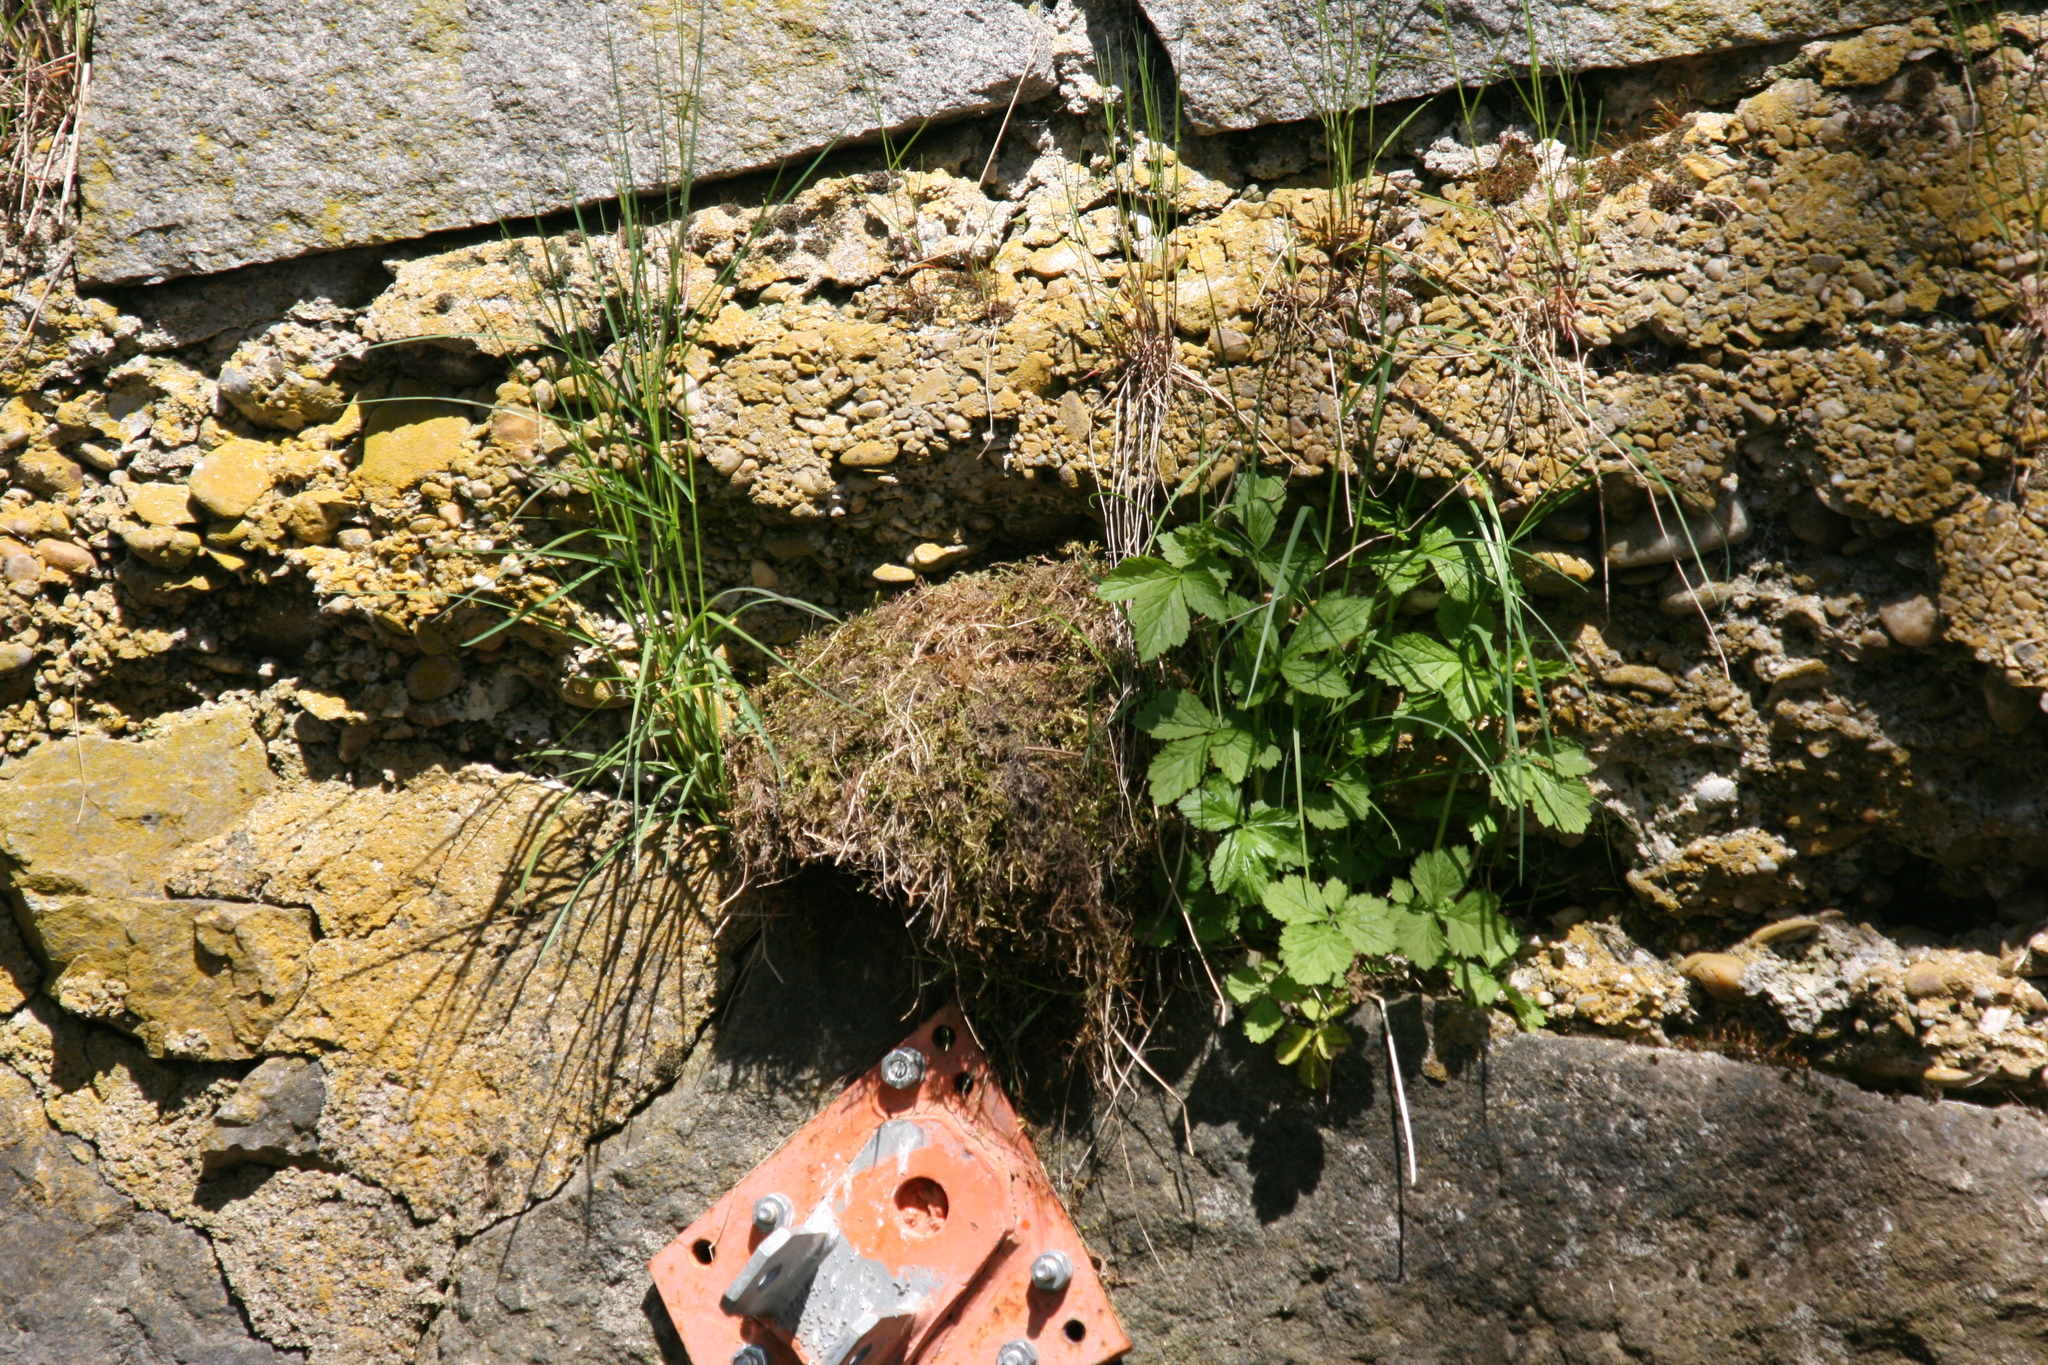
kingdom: Animalia
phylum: Chordata
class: Aves
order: Passeriformes
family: Cinclidae
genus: Cinclus
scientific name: Cinclus cinclus
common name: White-throated dipper
